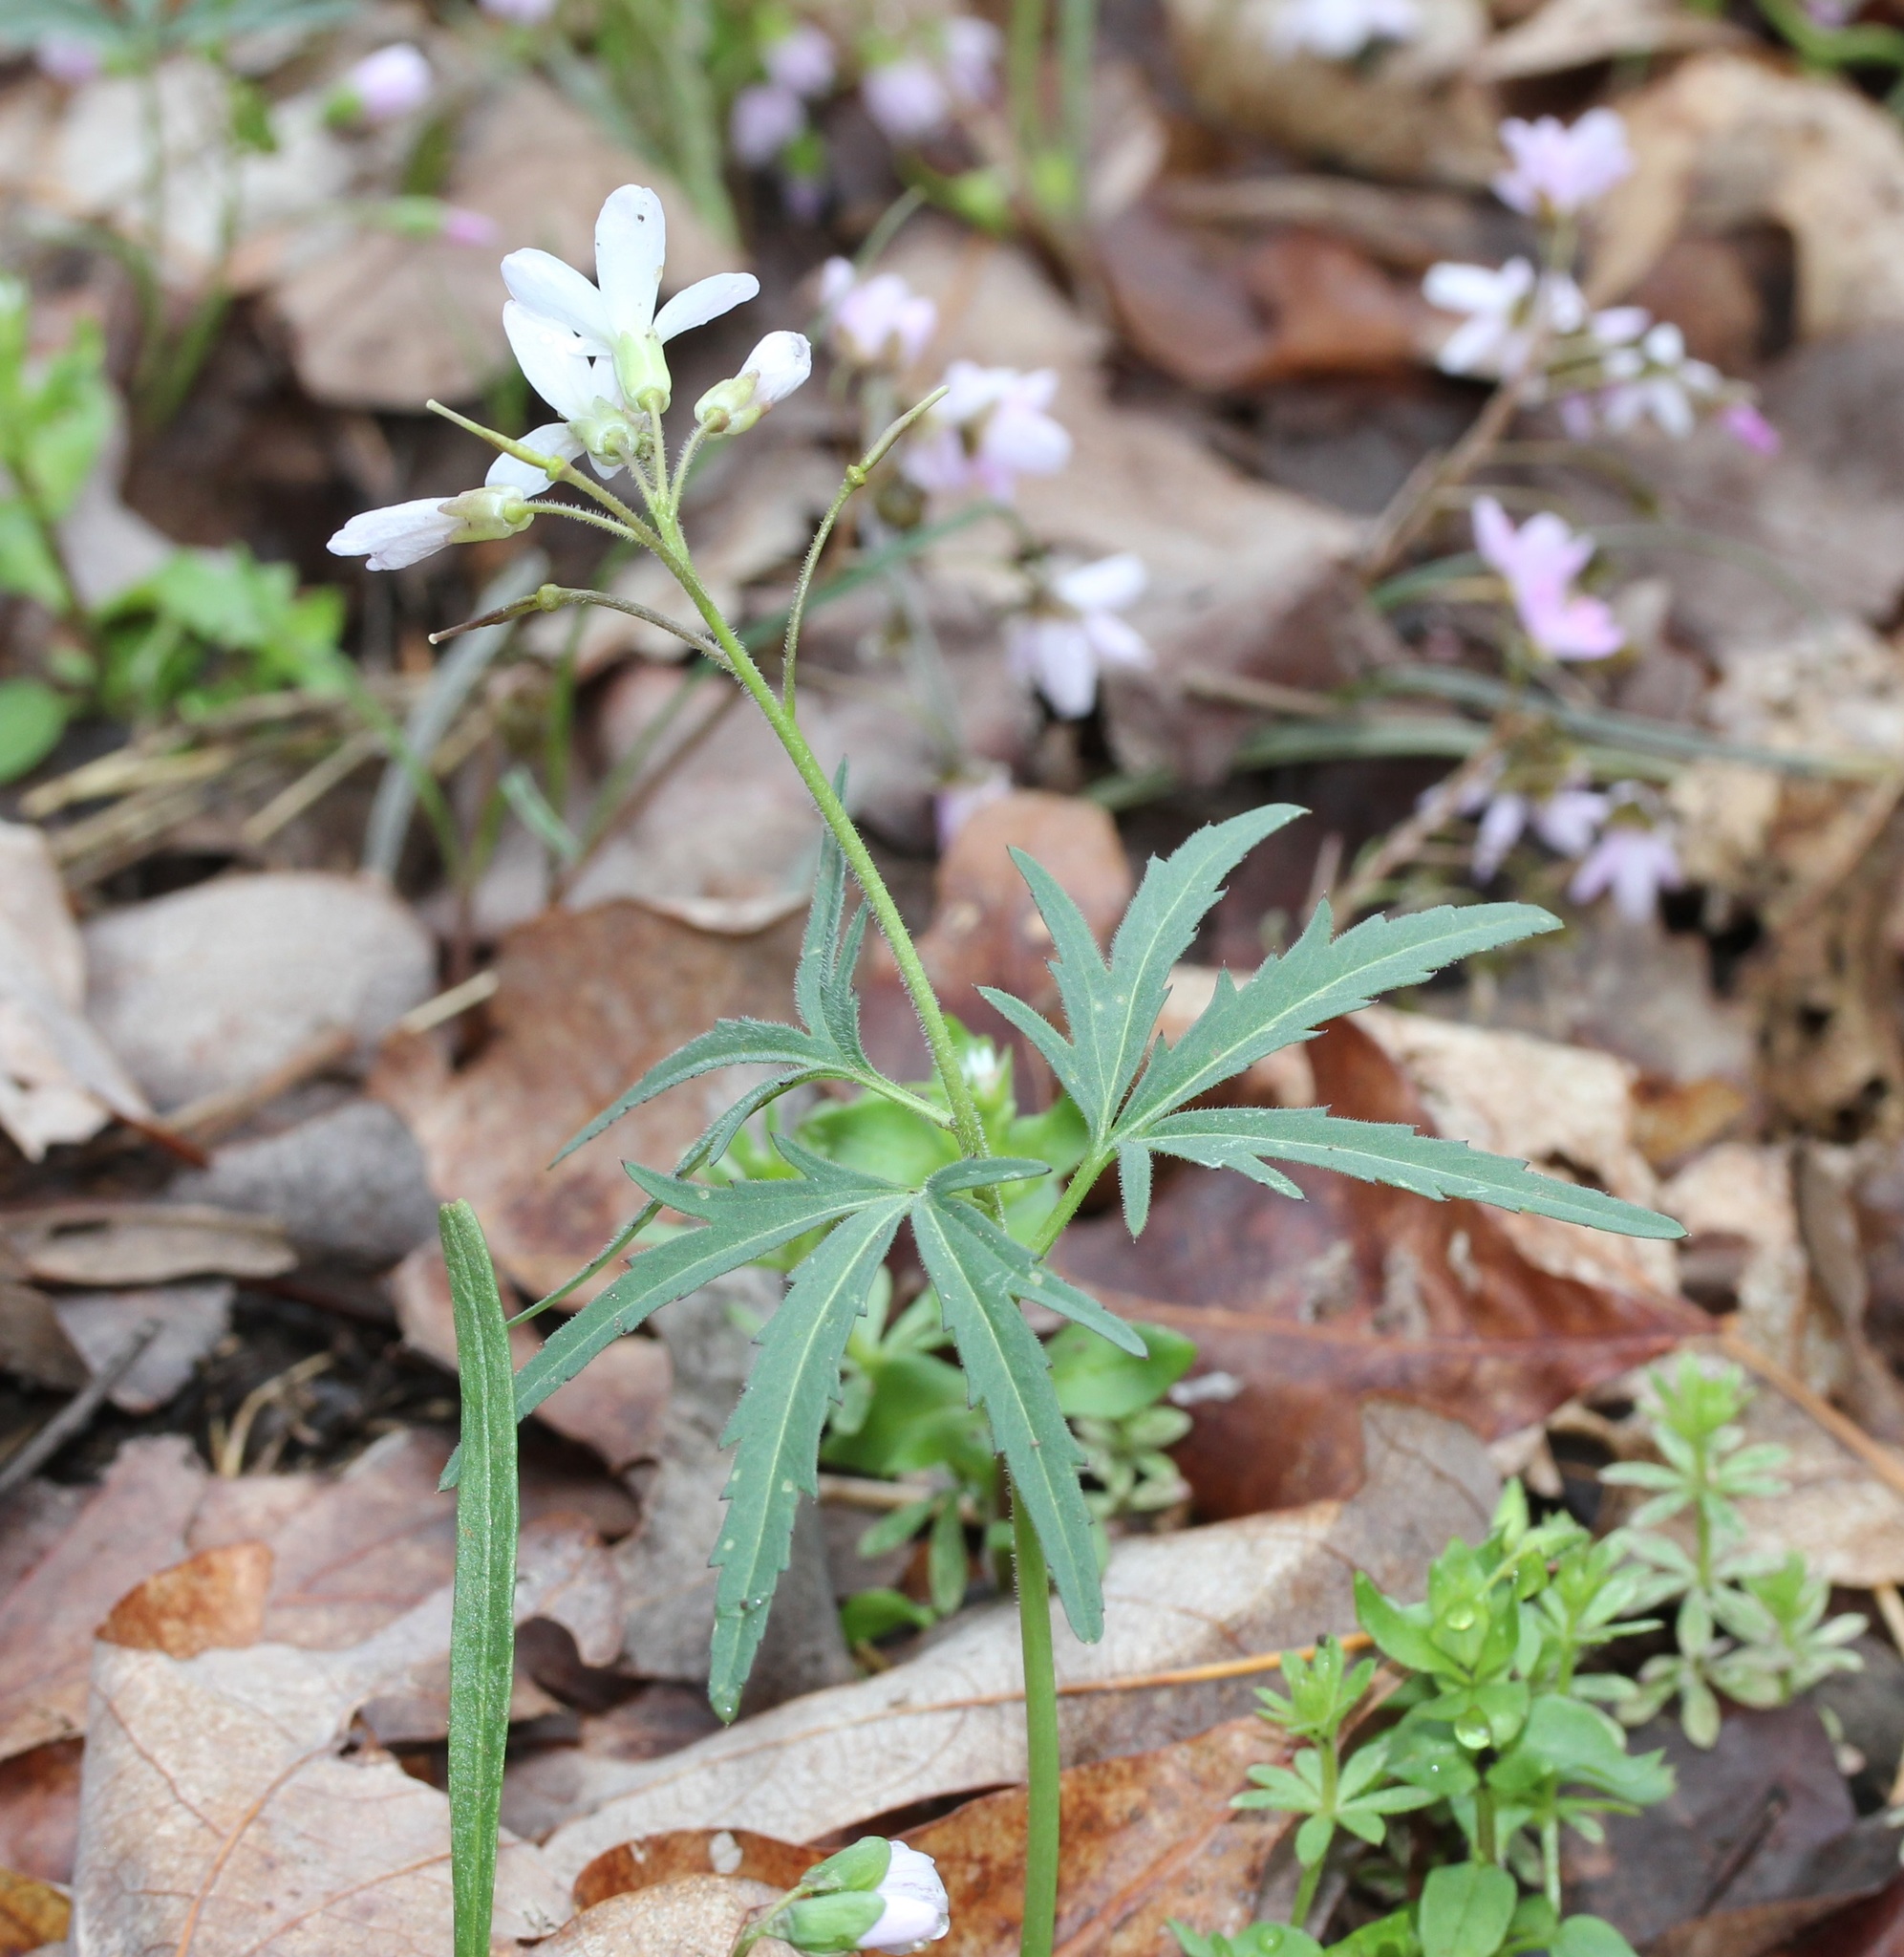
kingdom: Plantae
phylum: Tracheophyta
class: Magnoliopsida
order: Brassicales
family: Brassicaceae
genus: Cardamine
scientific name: Cardamine concatenata
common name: Cut-leaf toothcup
